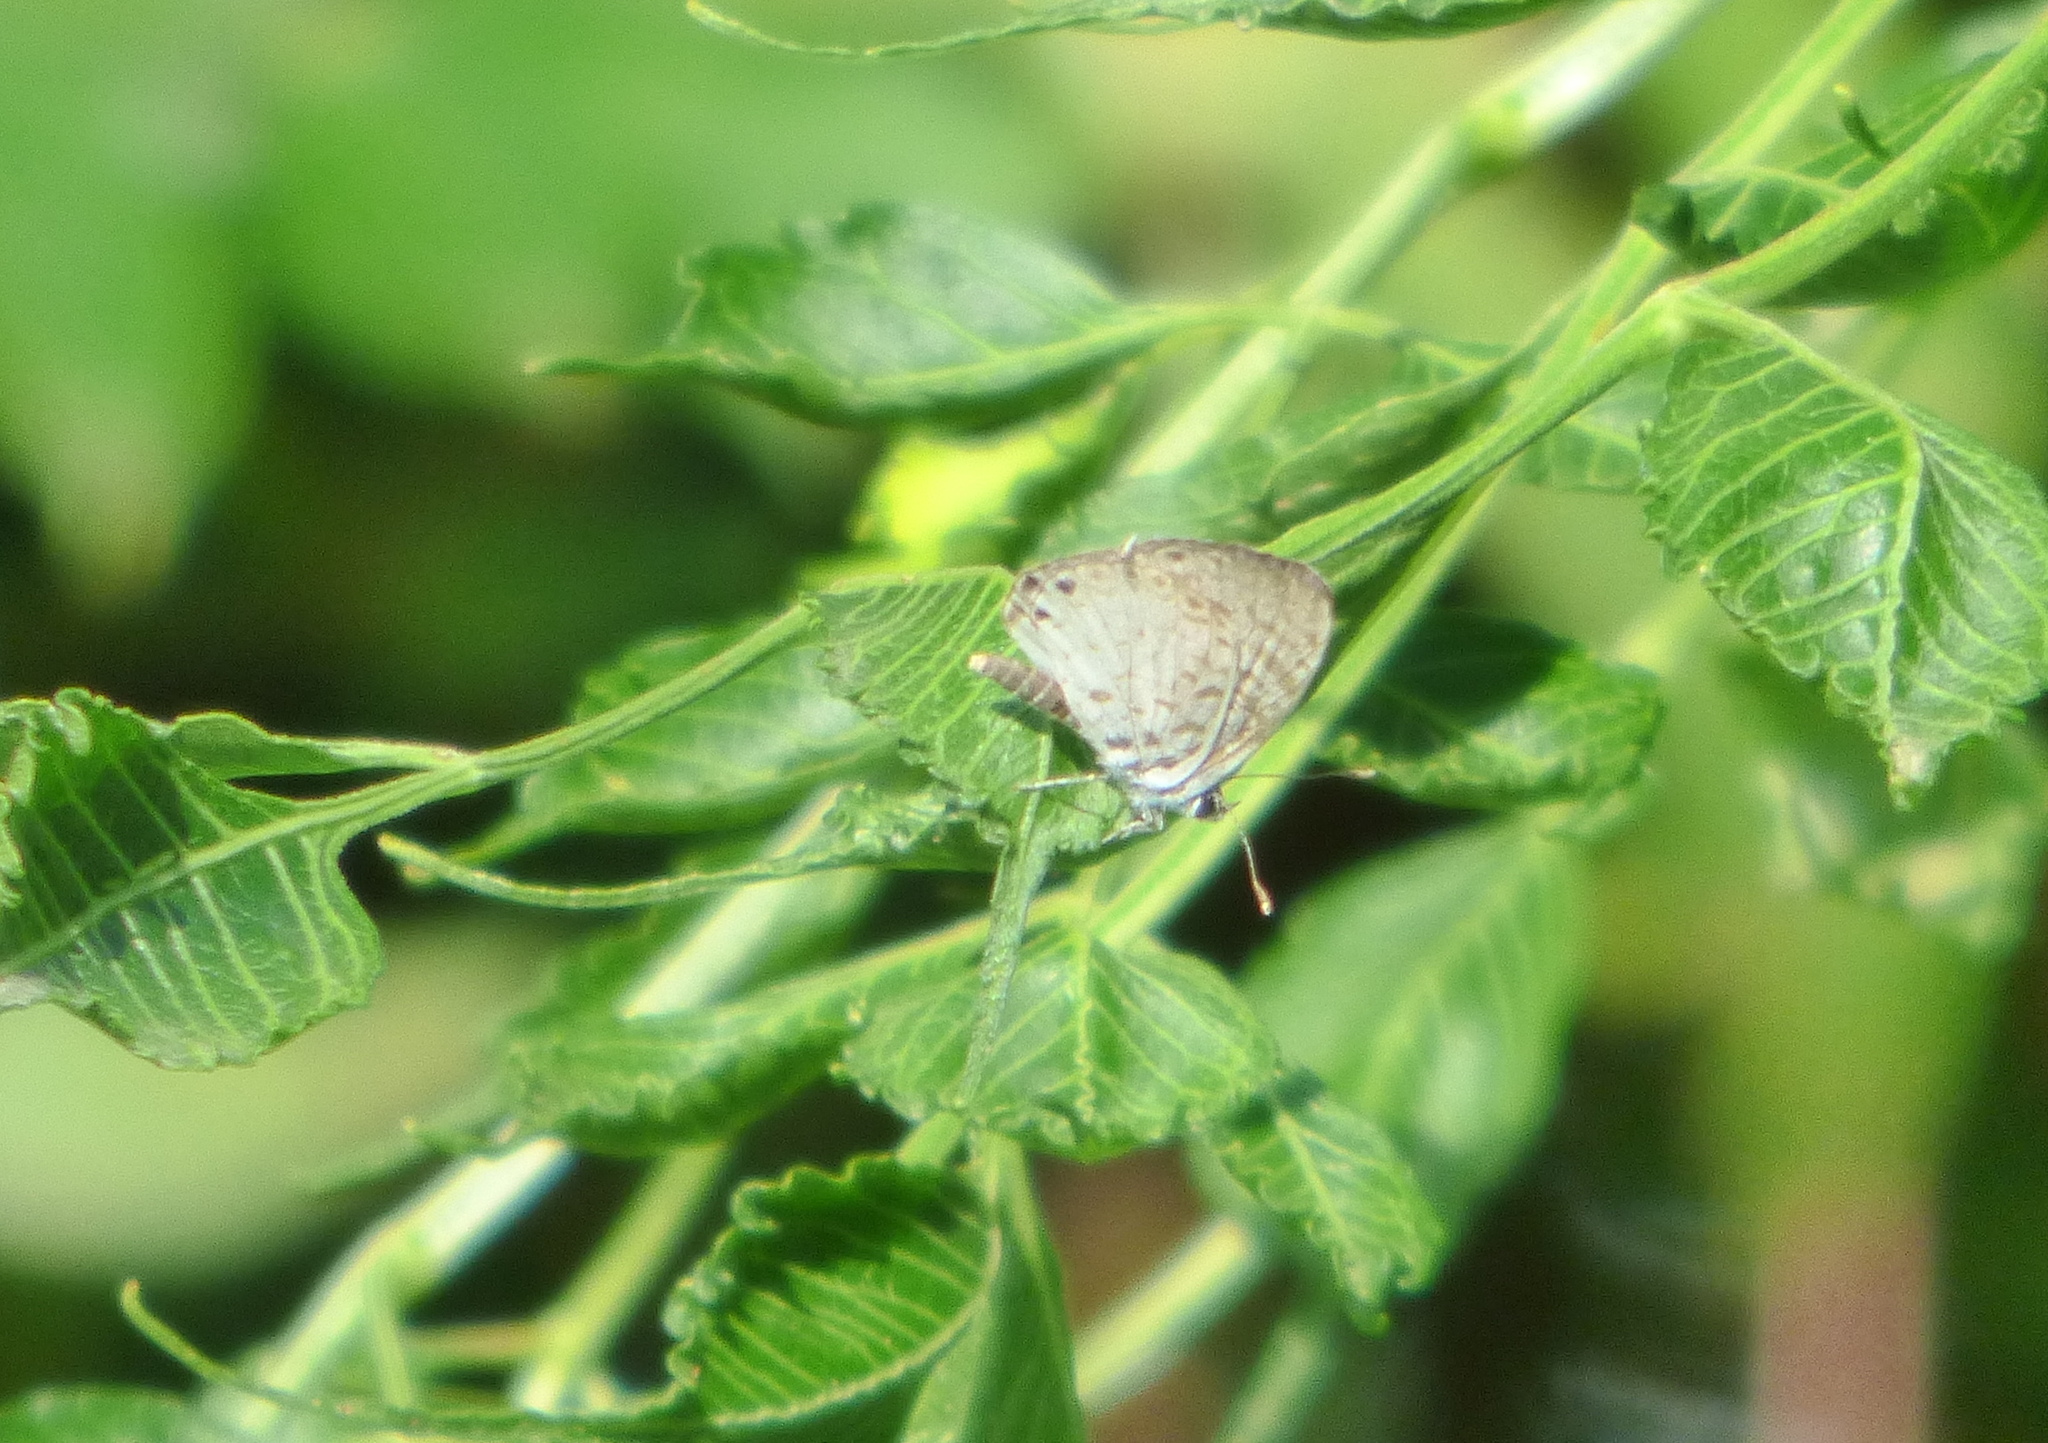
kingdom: Animalia
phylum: Arthropoda
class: Insecta
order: Lepidoptera
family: Lycaenidae
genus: Leptotes
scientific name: Leptotes cassius
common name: Cassius blue
